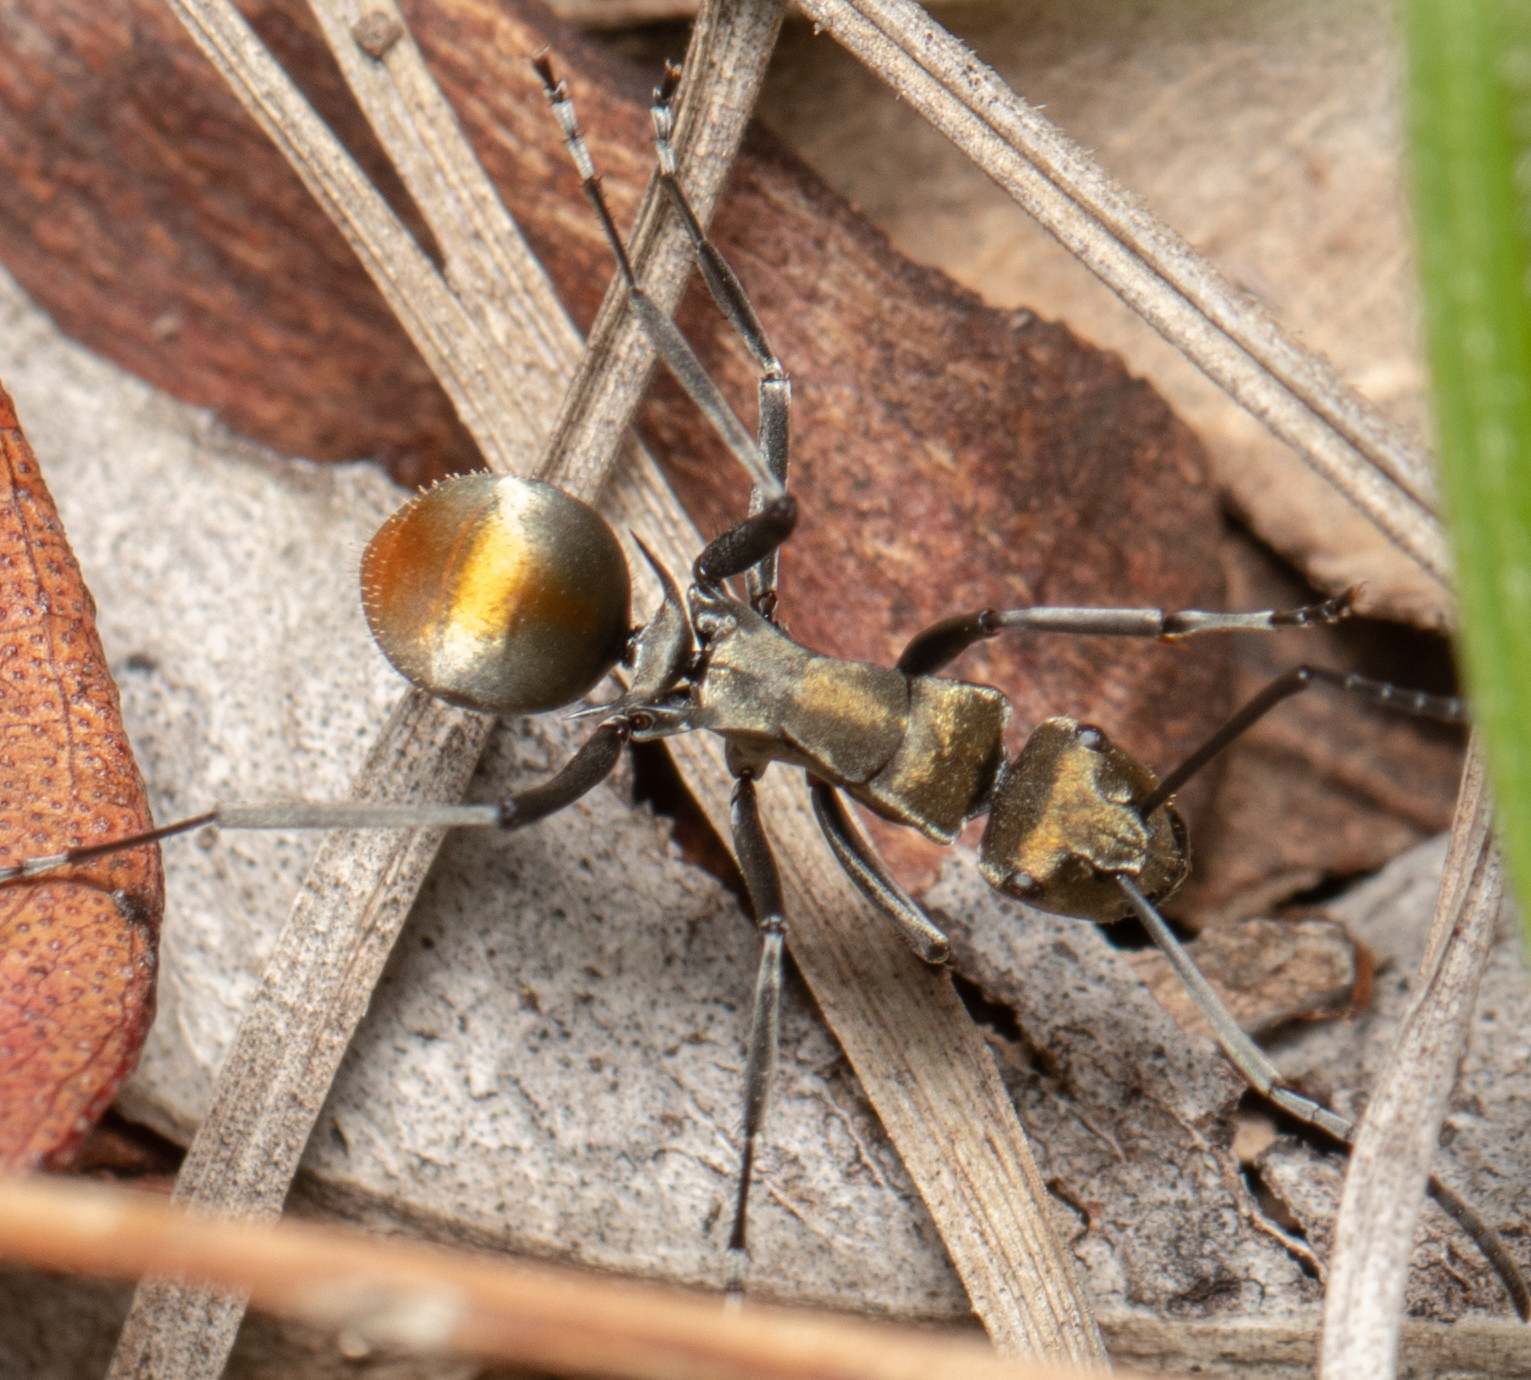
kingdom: Animalia
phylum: Arthropoda
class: Insecta
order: Hymenoptera
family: Formicidae
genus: Polyrhachis
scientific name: Polyrhachis trapezoidea
